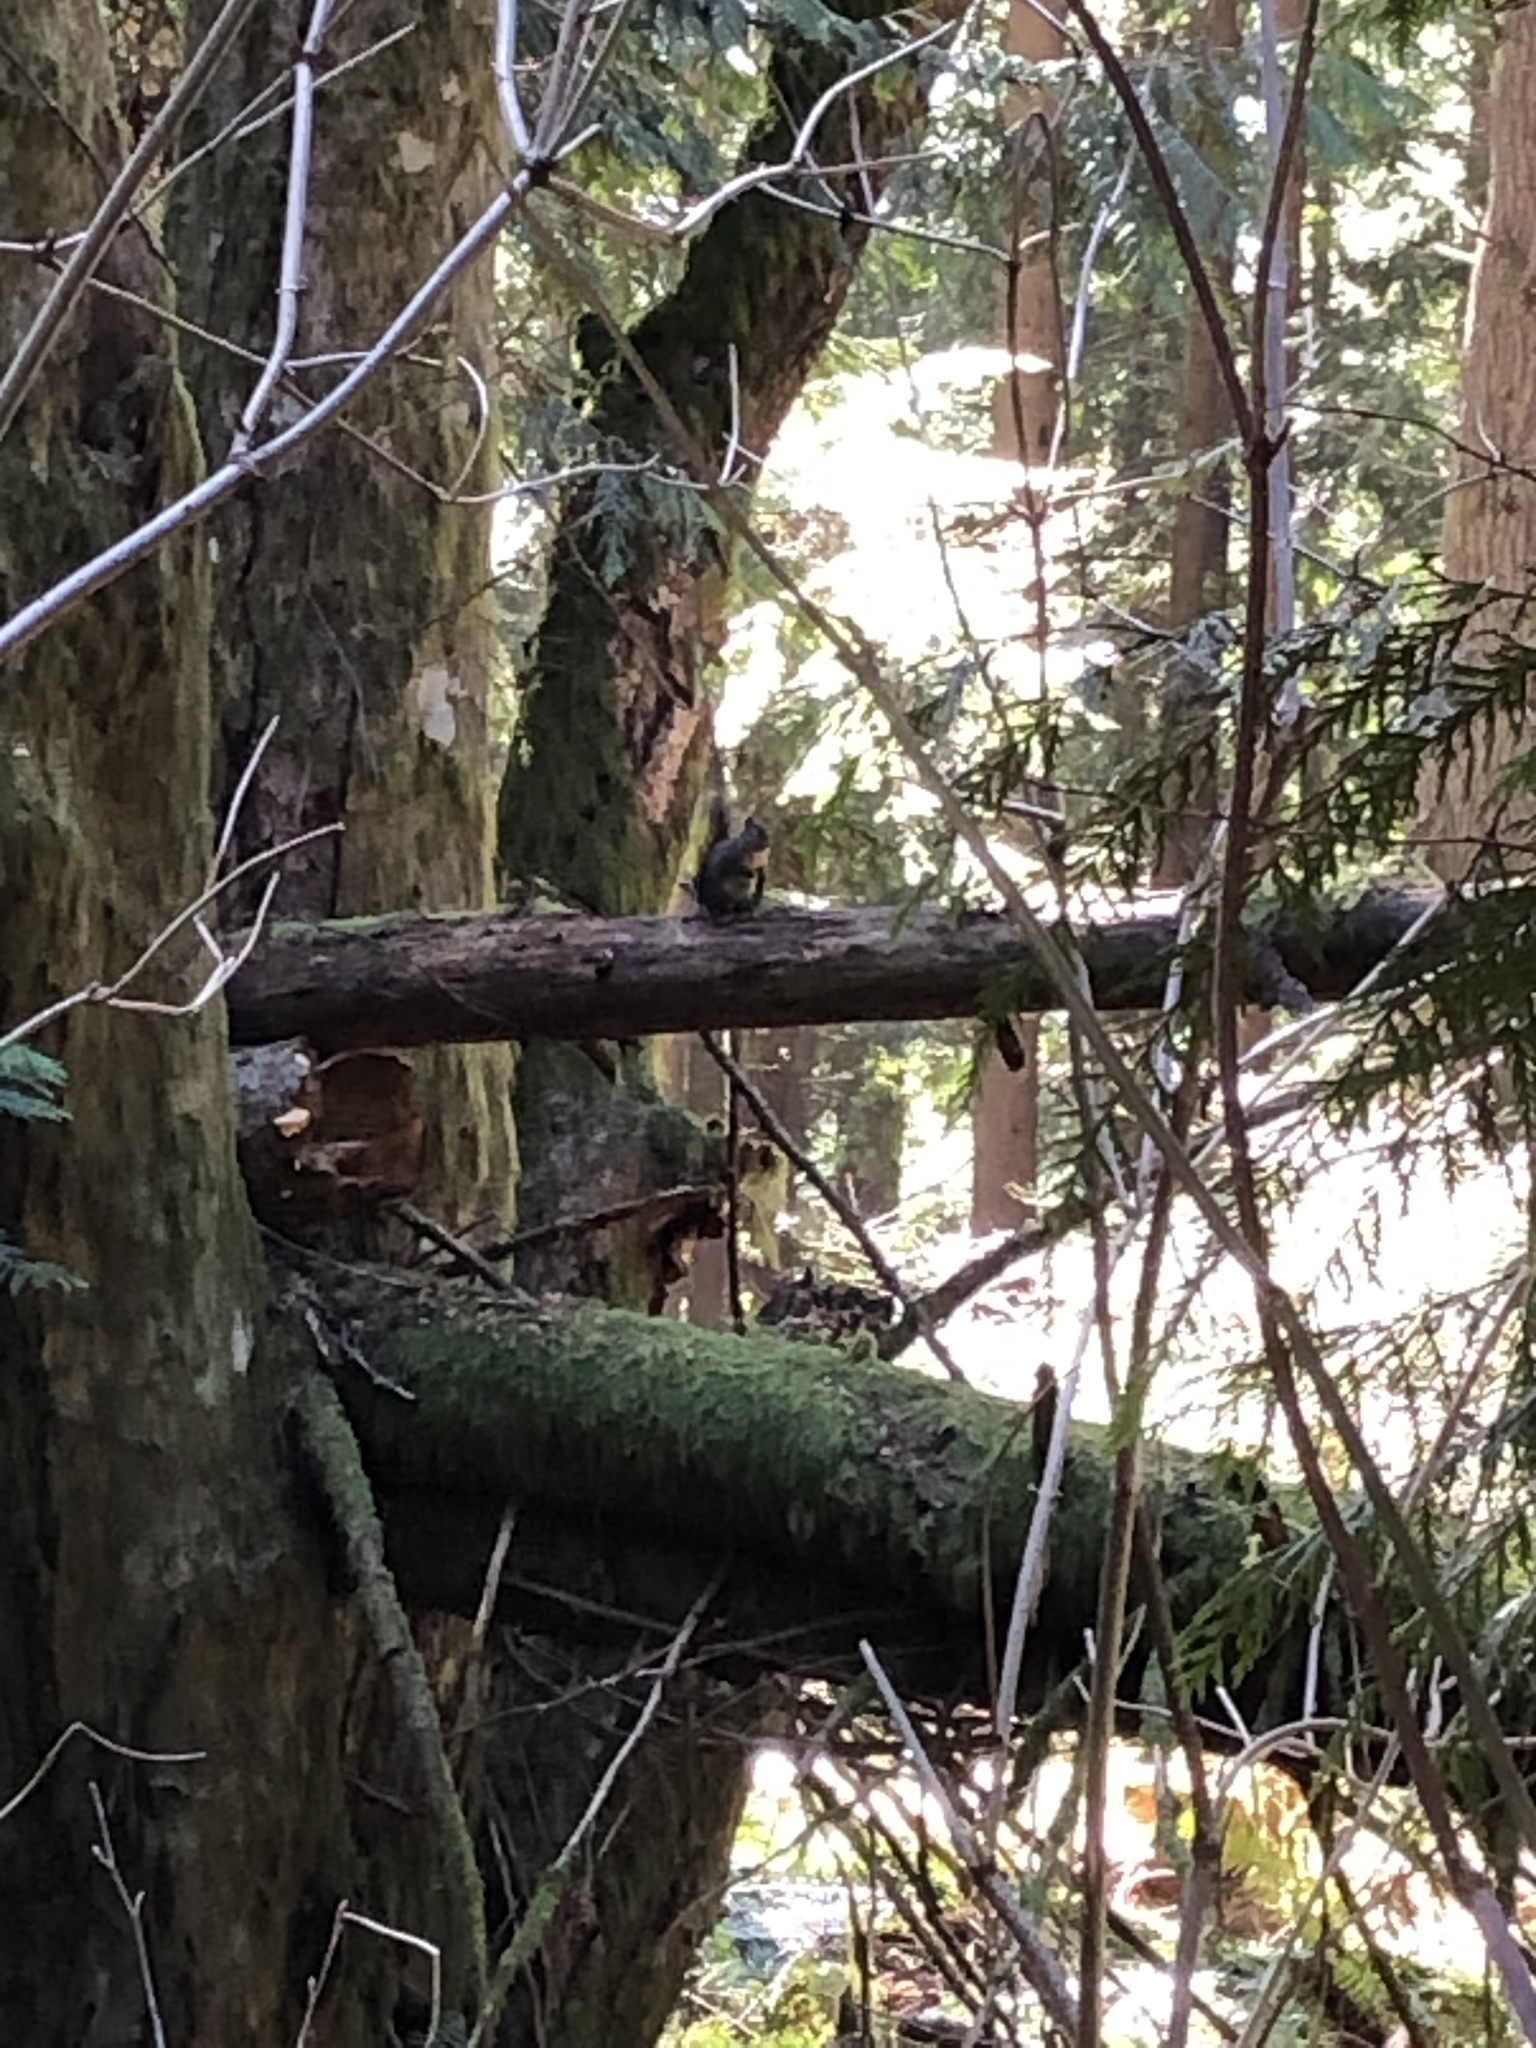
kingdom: Animalia
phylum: Chordata
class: Mammalia
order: Rodentia
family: Sciuridae
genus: Tamiasciurus
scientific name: Tamiasciurus douglasii
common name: Douglas's squirrel
